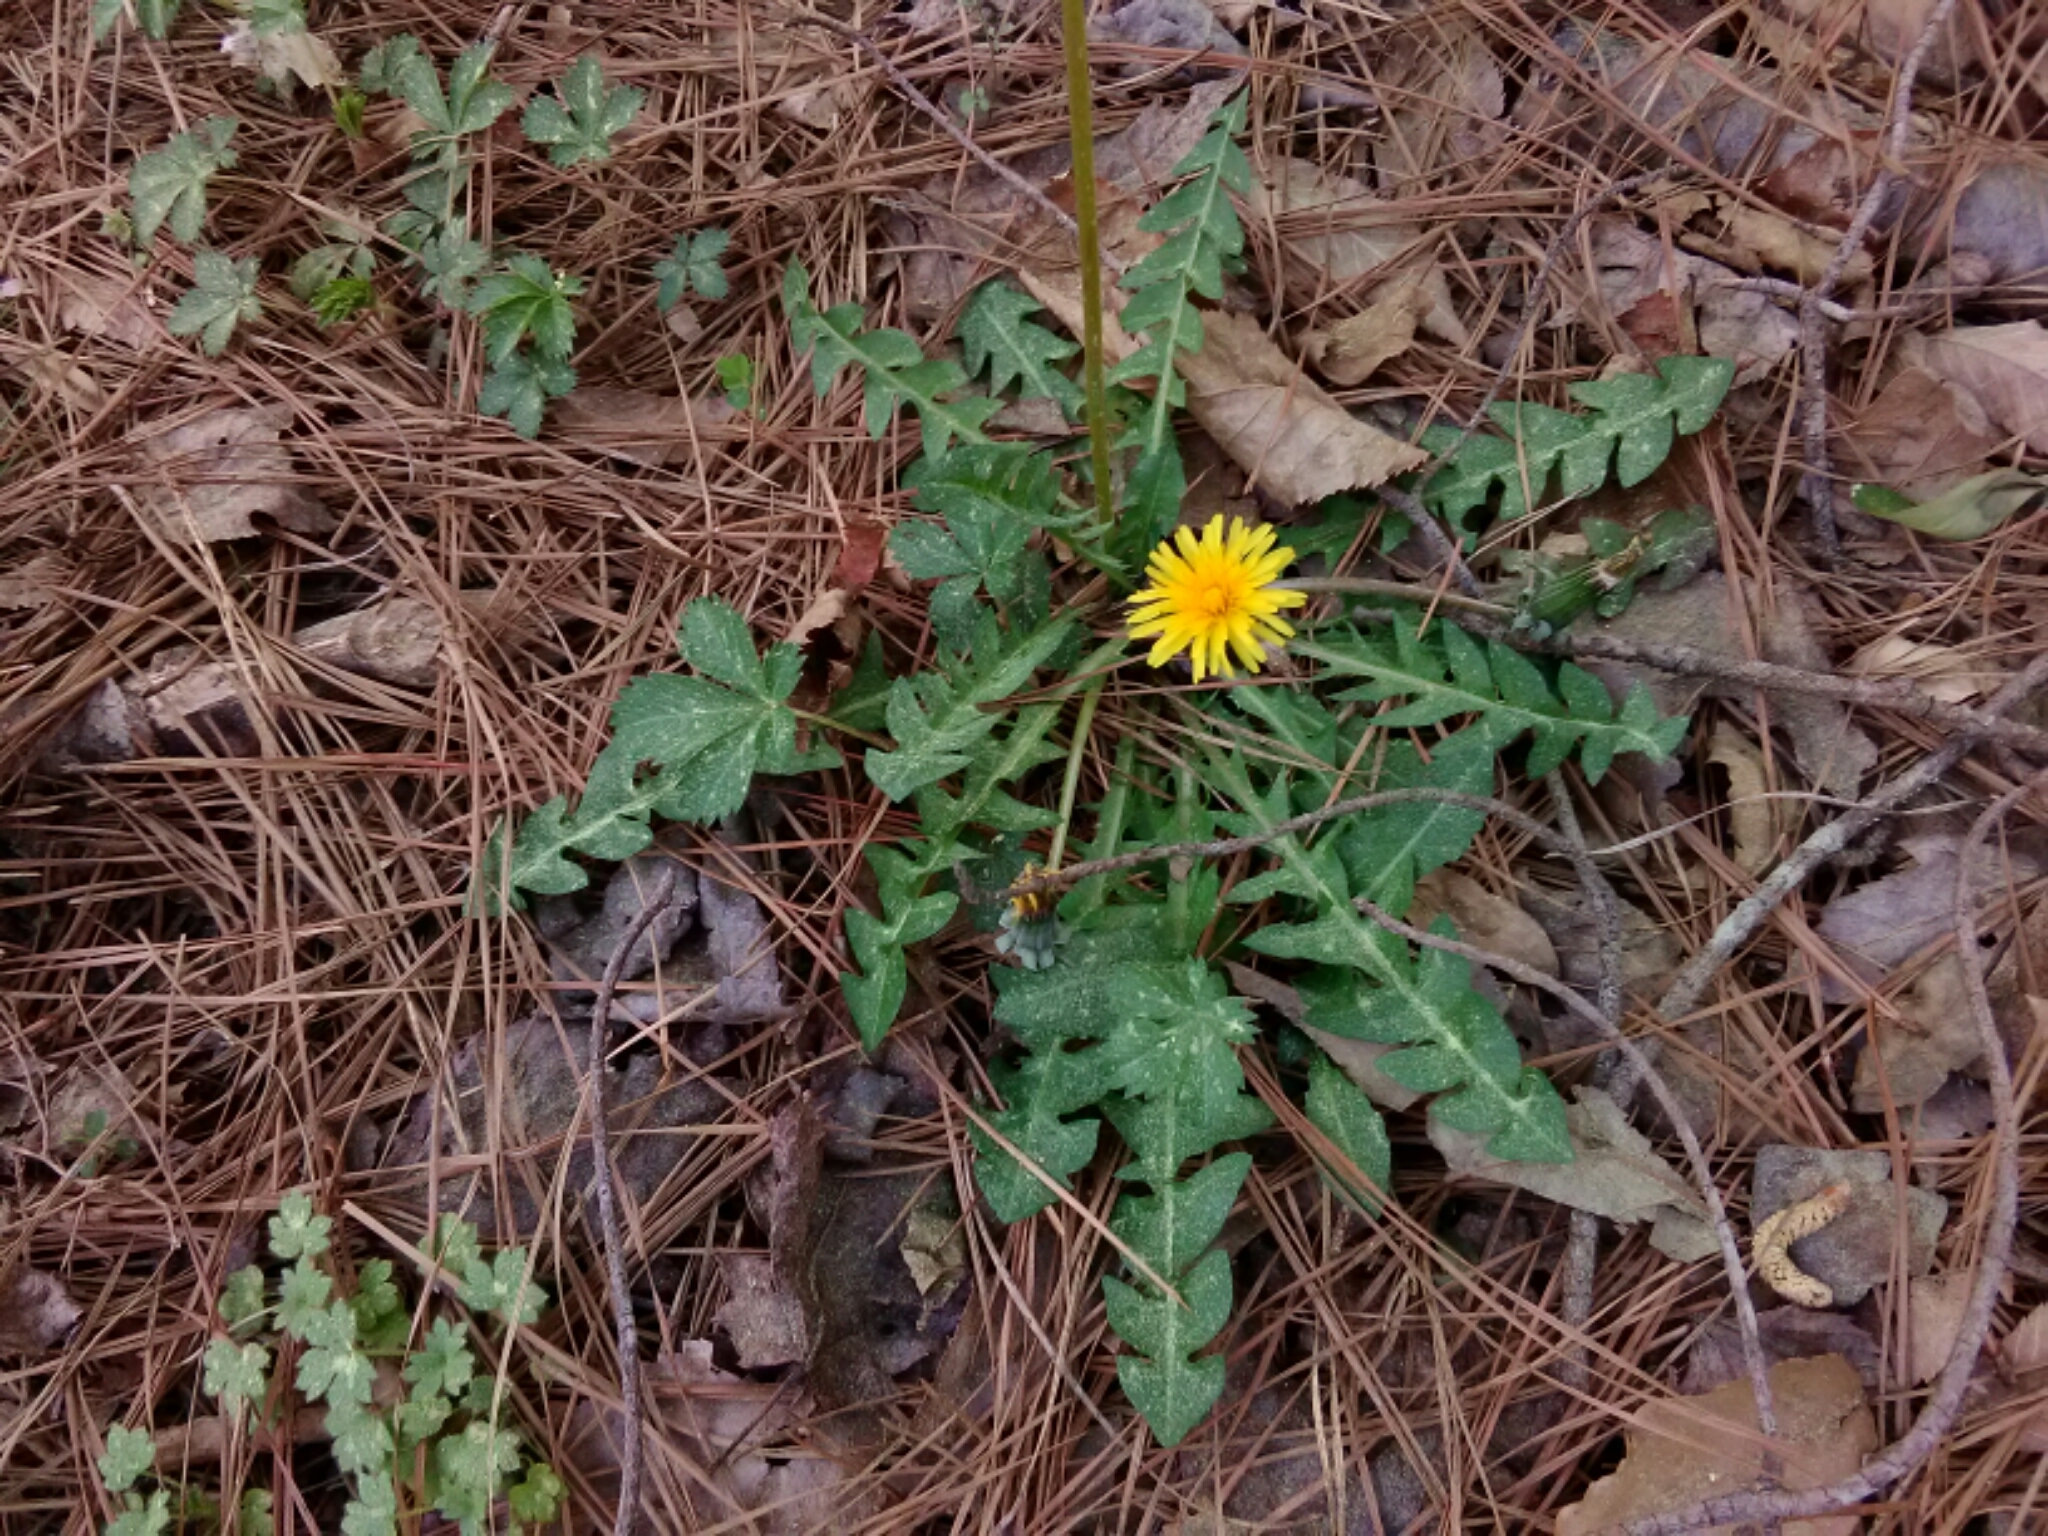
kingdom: Plantae
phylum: Tracheophyta
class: Magnoliopsida
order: Asterales
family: Asteraceae
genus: Taraxacum
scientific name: Taraxacum officinale
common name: Common dandelion
